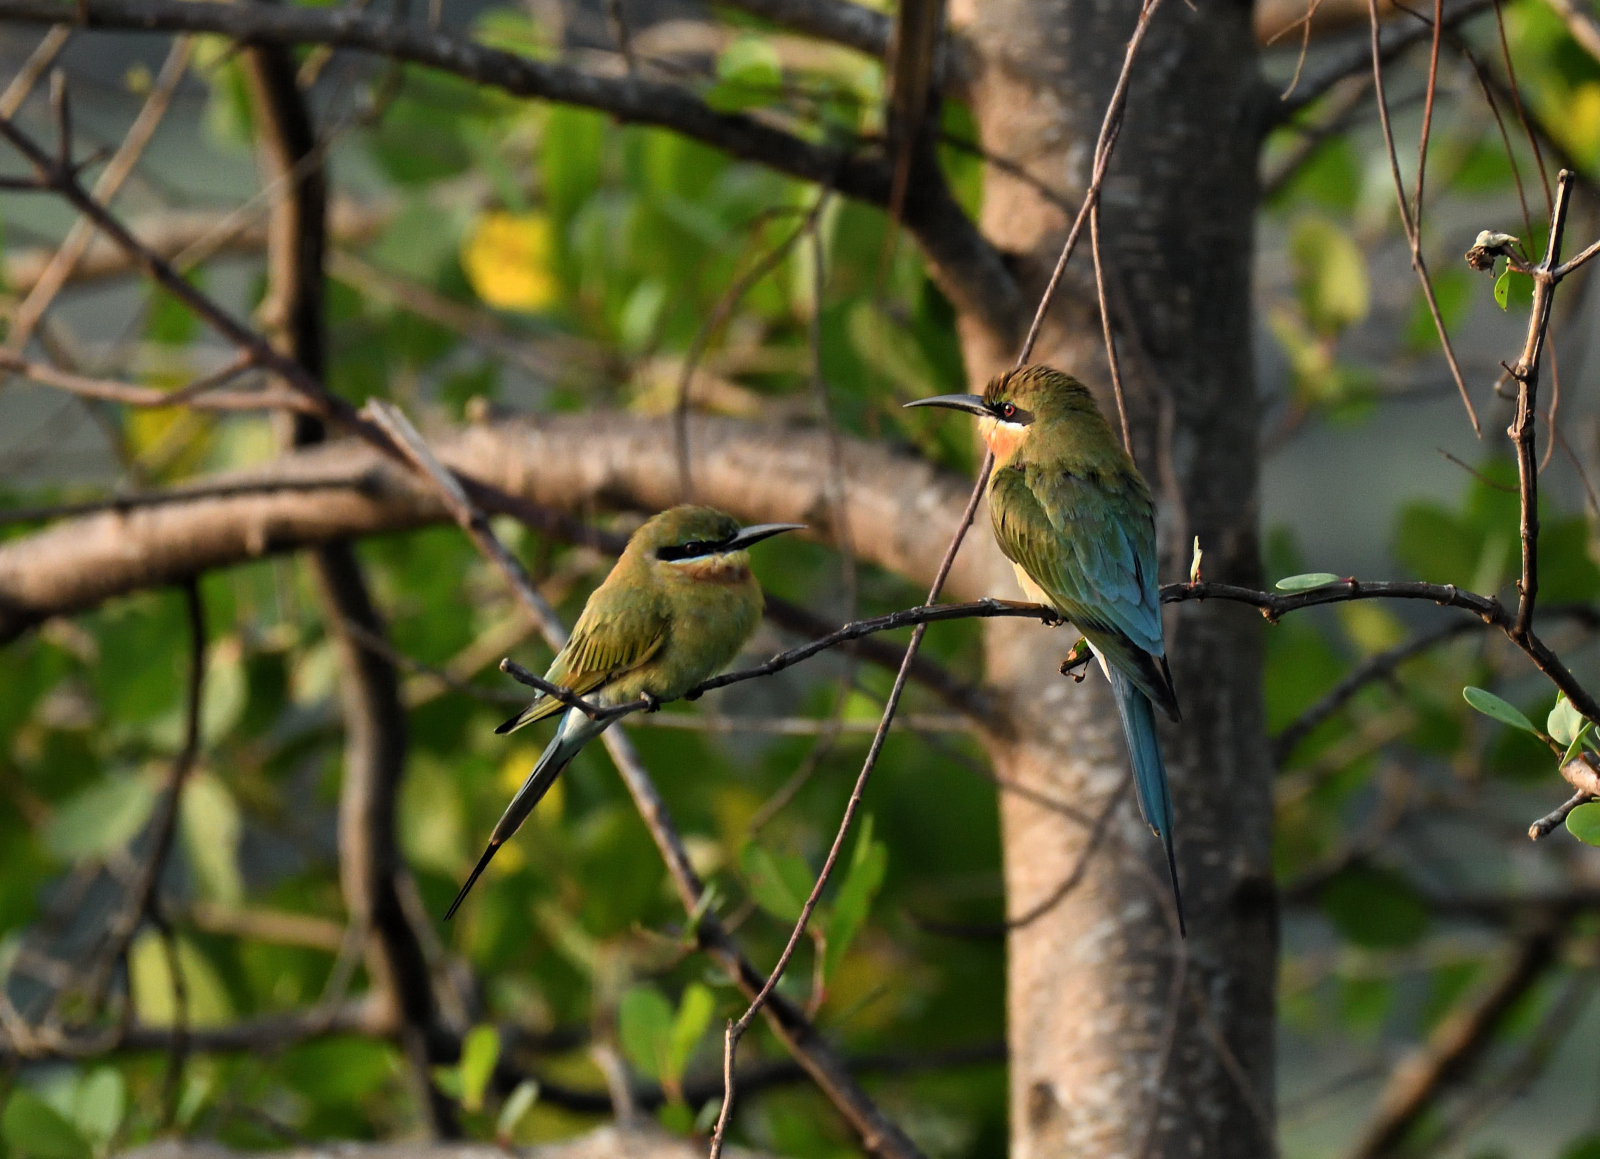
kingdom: Animalia
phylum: Chordata
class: Aves
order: Coraciiformes
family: Meropidae
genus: Merops
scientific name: Merops philippinus
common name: Blue-tailed bee-eater
